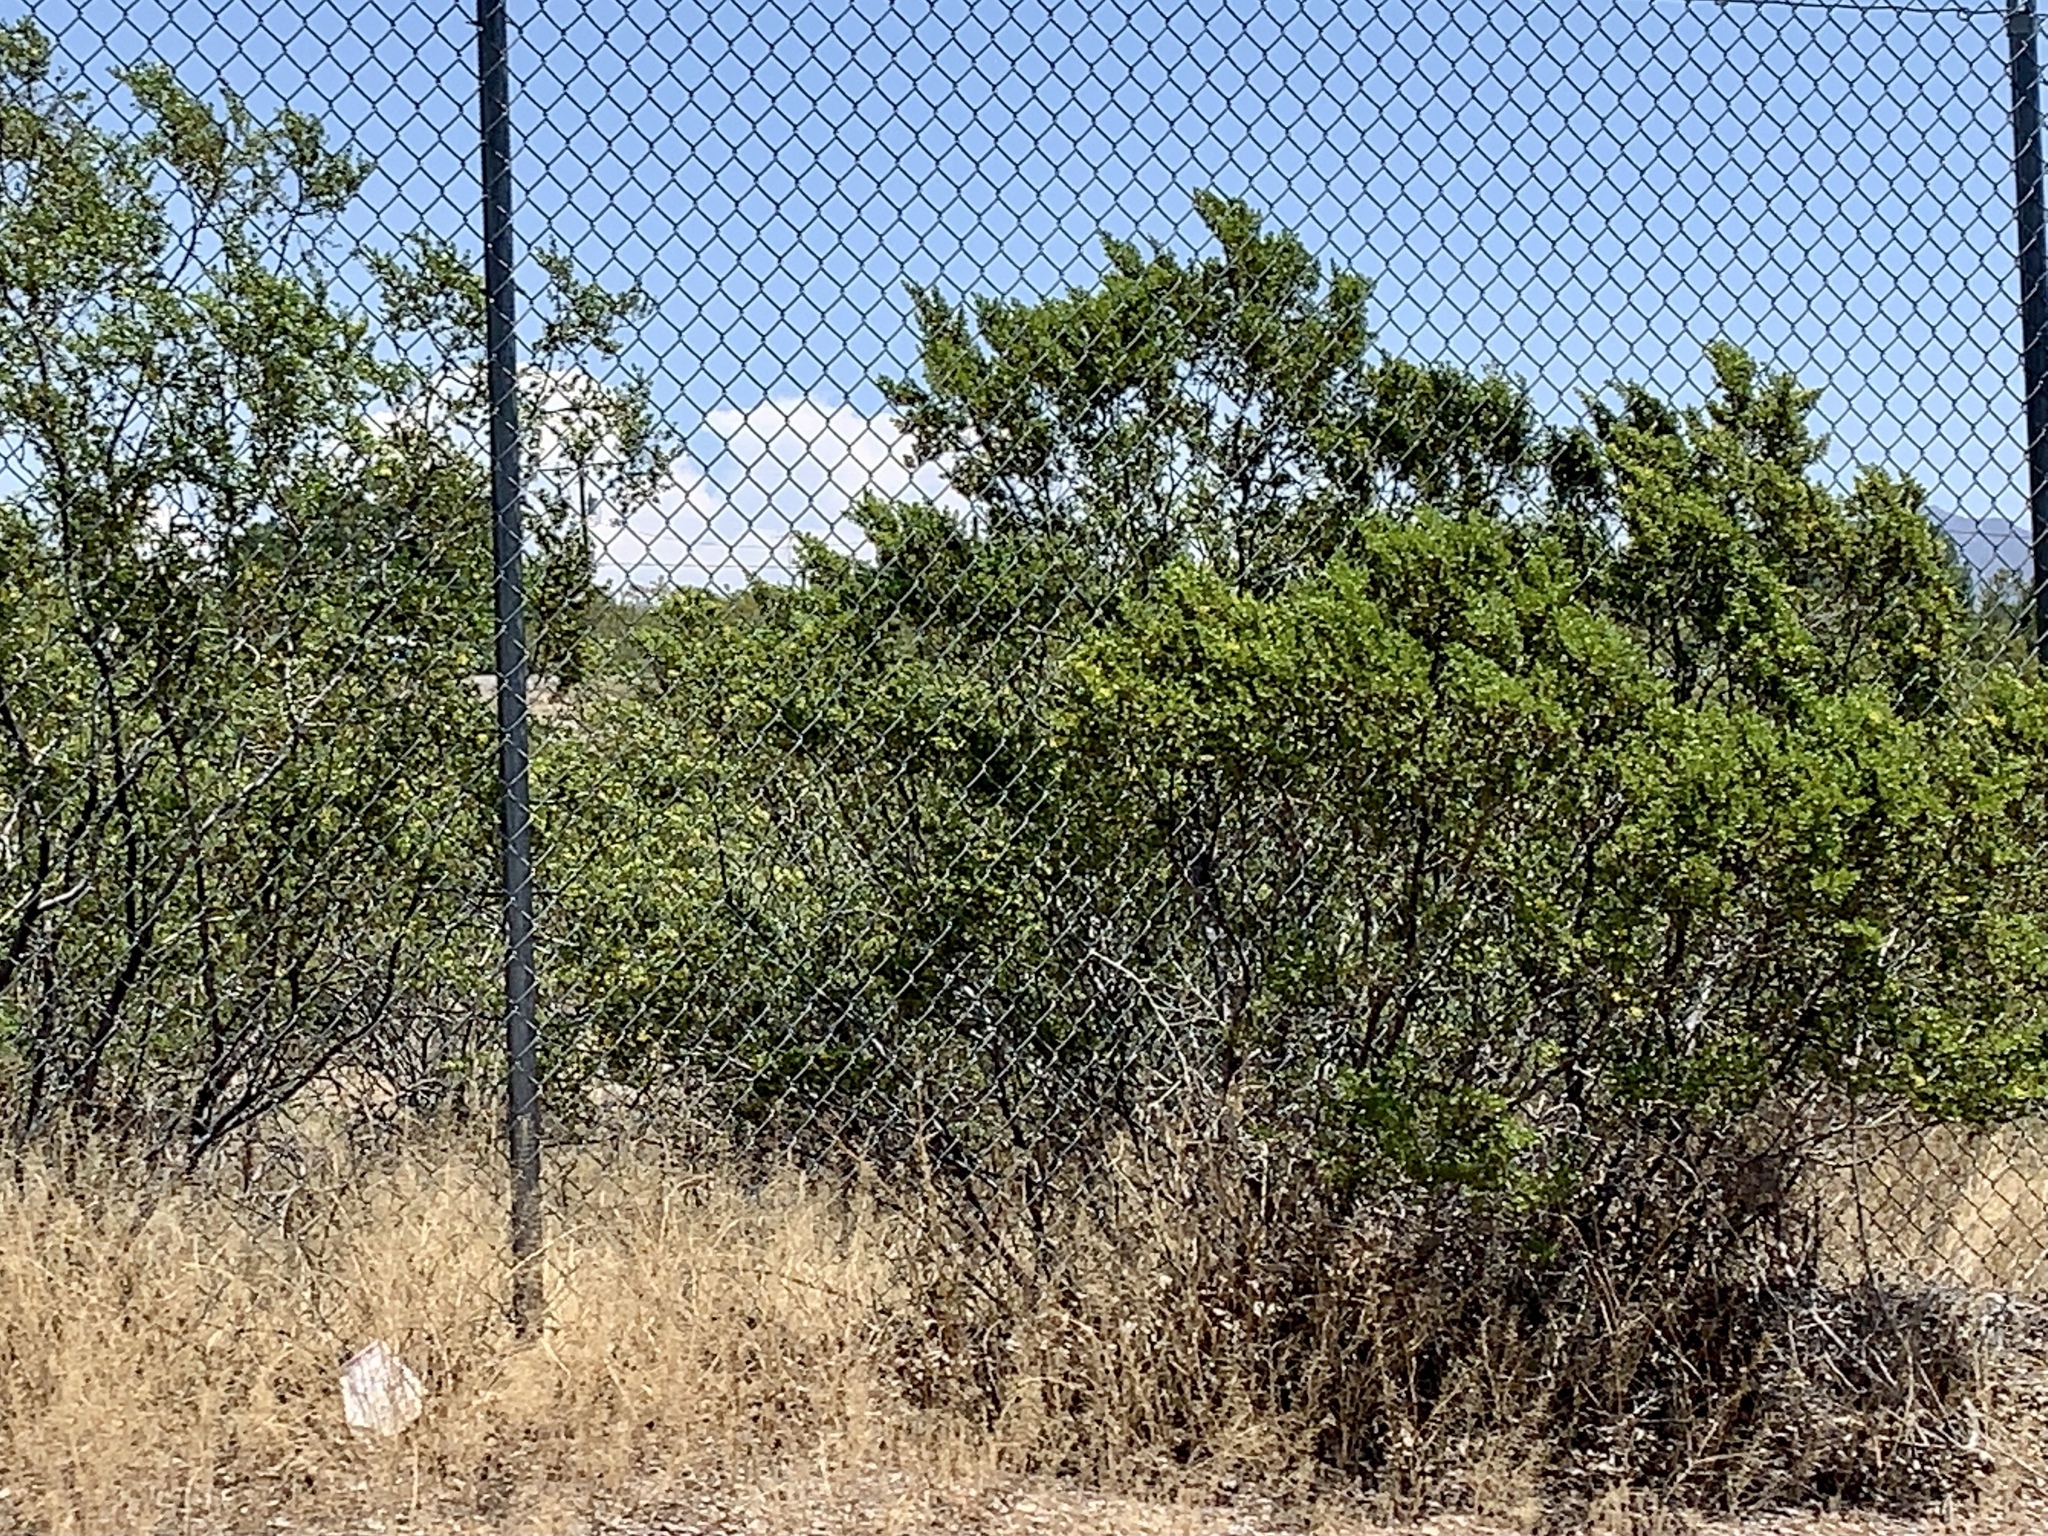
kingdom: Plantae
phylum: Tracheophyta
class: Magnoliopsida
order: Zygophyllales
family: Zygophyllaceae
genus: Larrea
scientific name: Larrea tridentata
